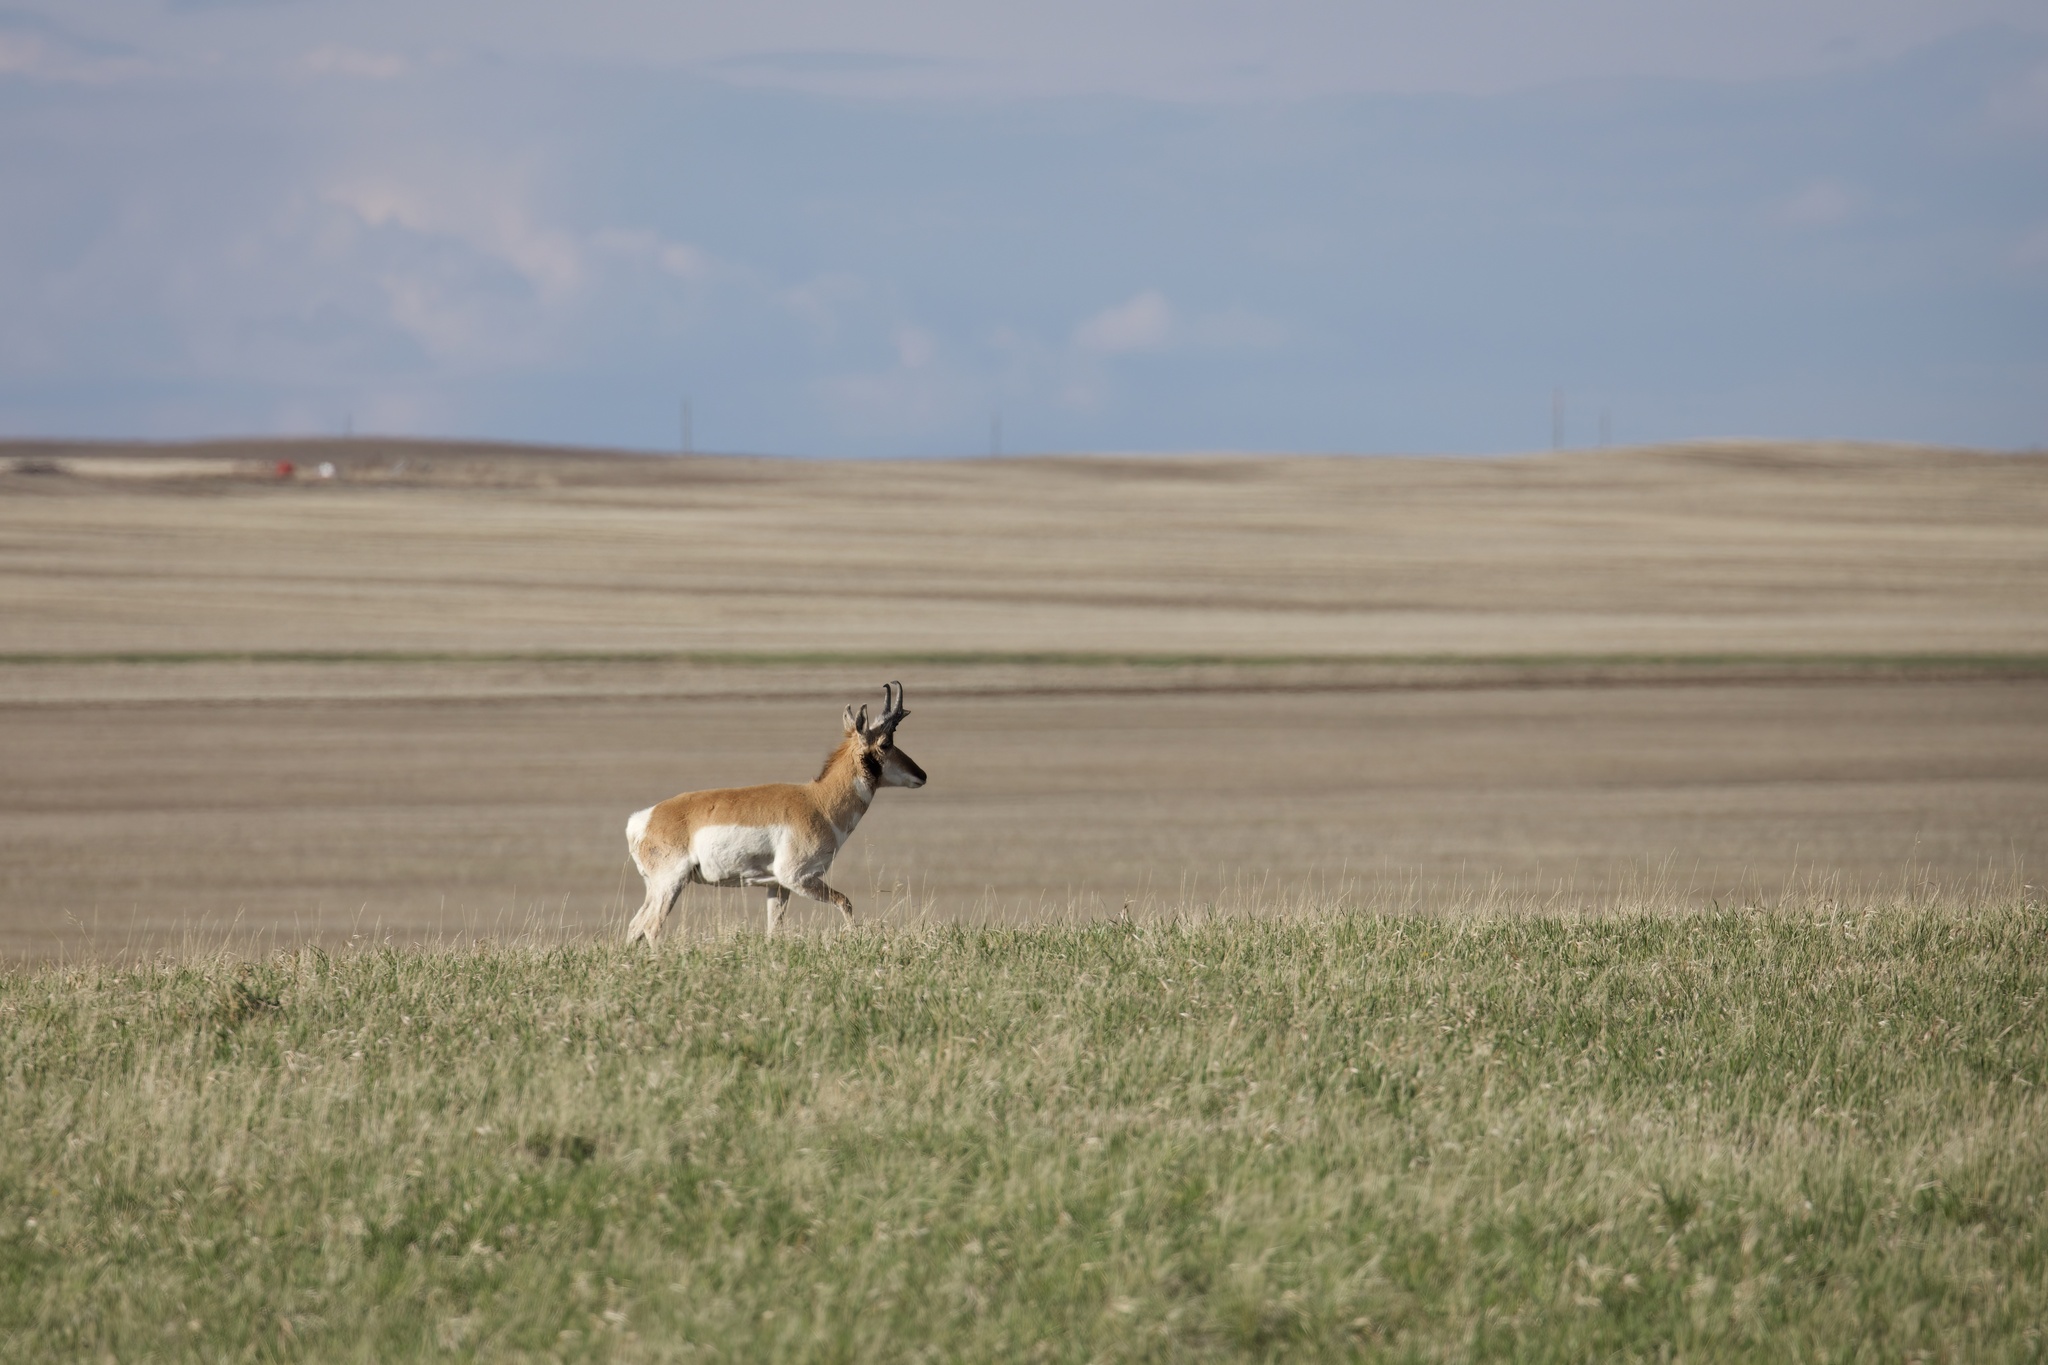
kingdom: Animalia
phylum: Chordata
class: Mammalia
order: Artiodactyla
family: Antilocapridae
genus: Antilocapra
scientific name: Antilocapra americana
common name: Pronghorn
